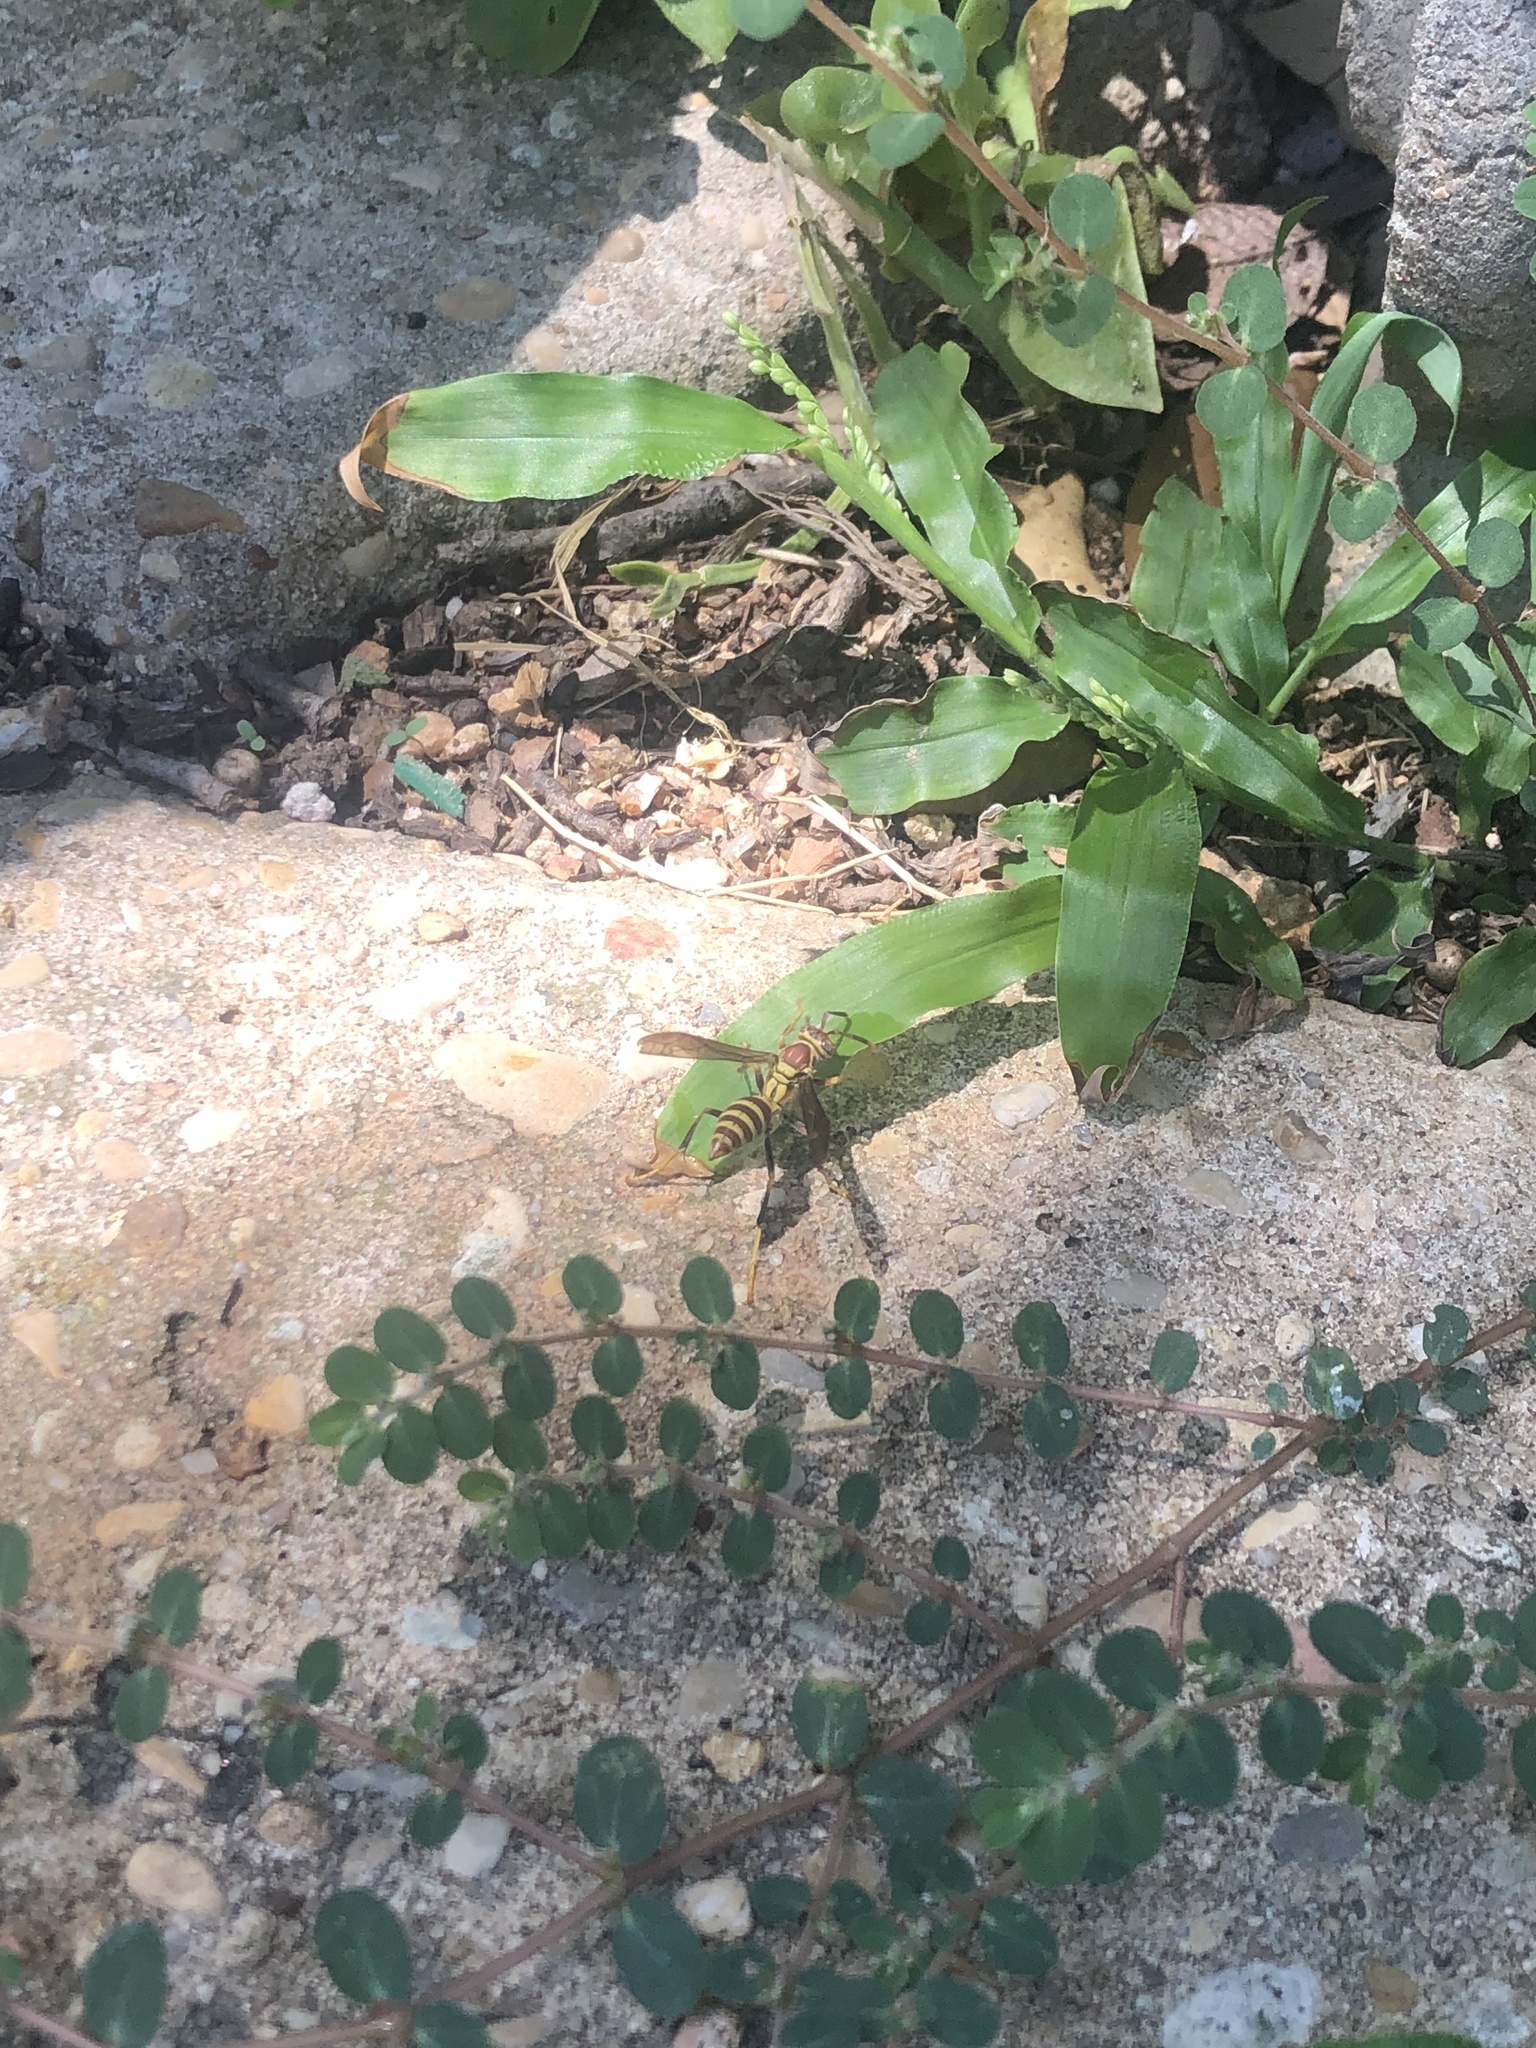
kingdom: Animalia
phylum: Arthropoda
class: Insecta
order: Hymenoptera
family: Eumenidae
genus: Polistes
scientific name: Polistes exclamans
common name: Paper wasp
